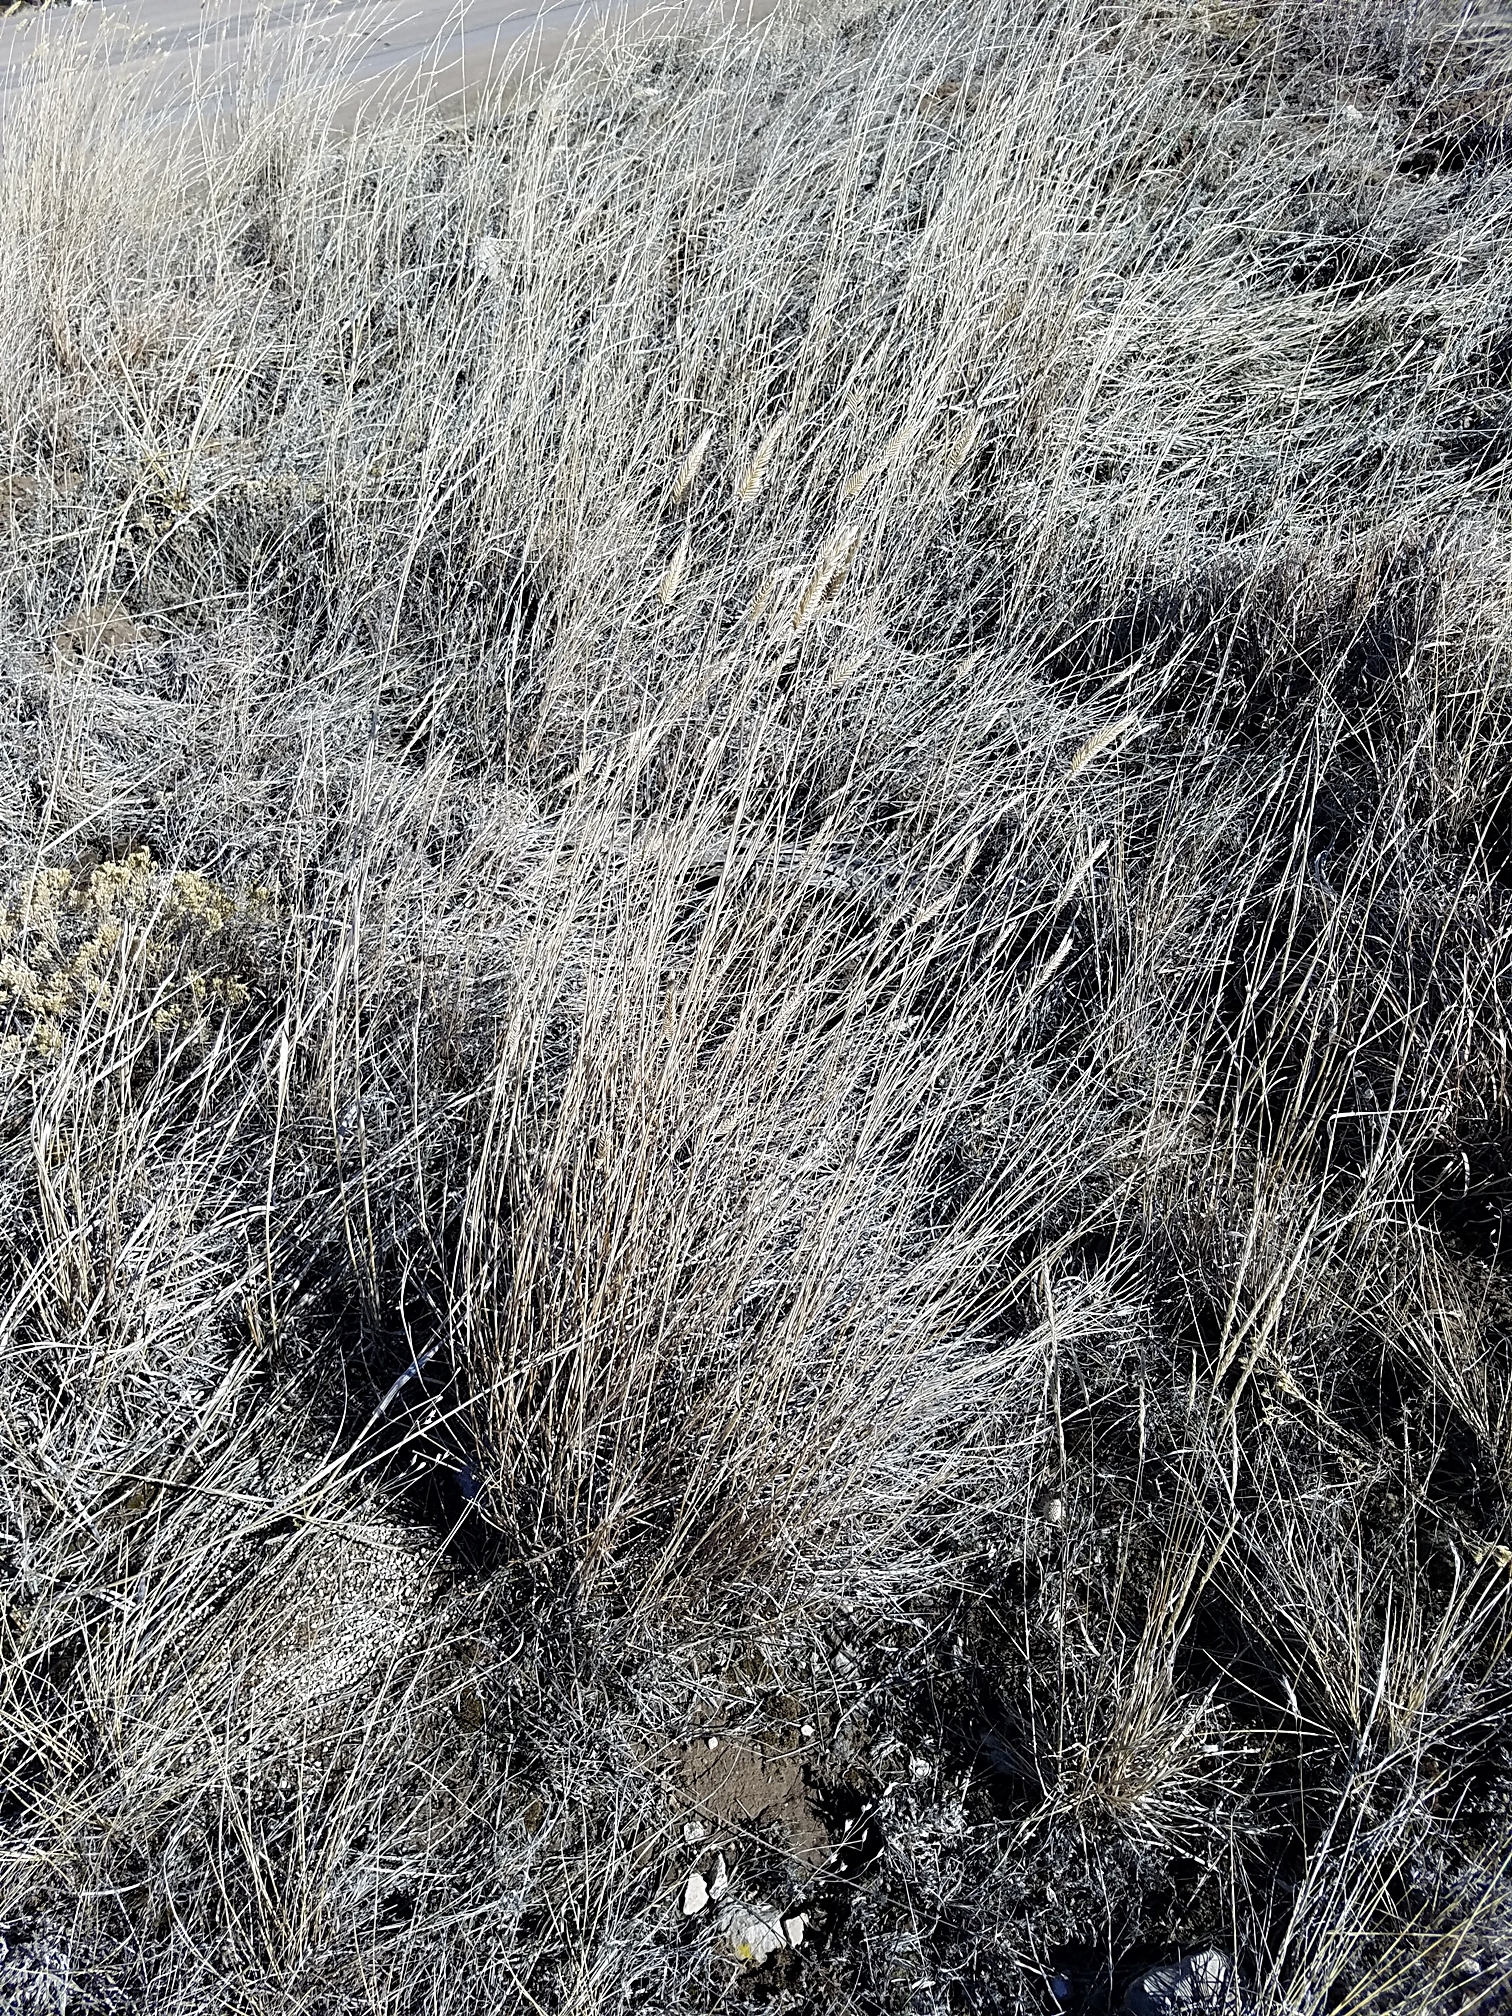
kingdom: Plantae
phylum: Tracheophyta
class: Liliopsida
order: Poales
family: Poaceae
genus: Agropyron
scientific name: Agropyron cristatum
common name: Crested wheatgrass
